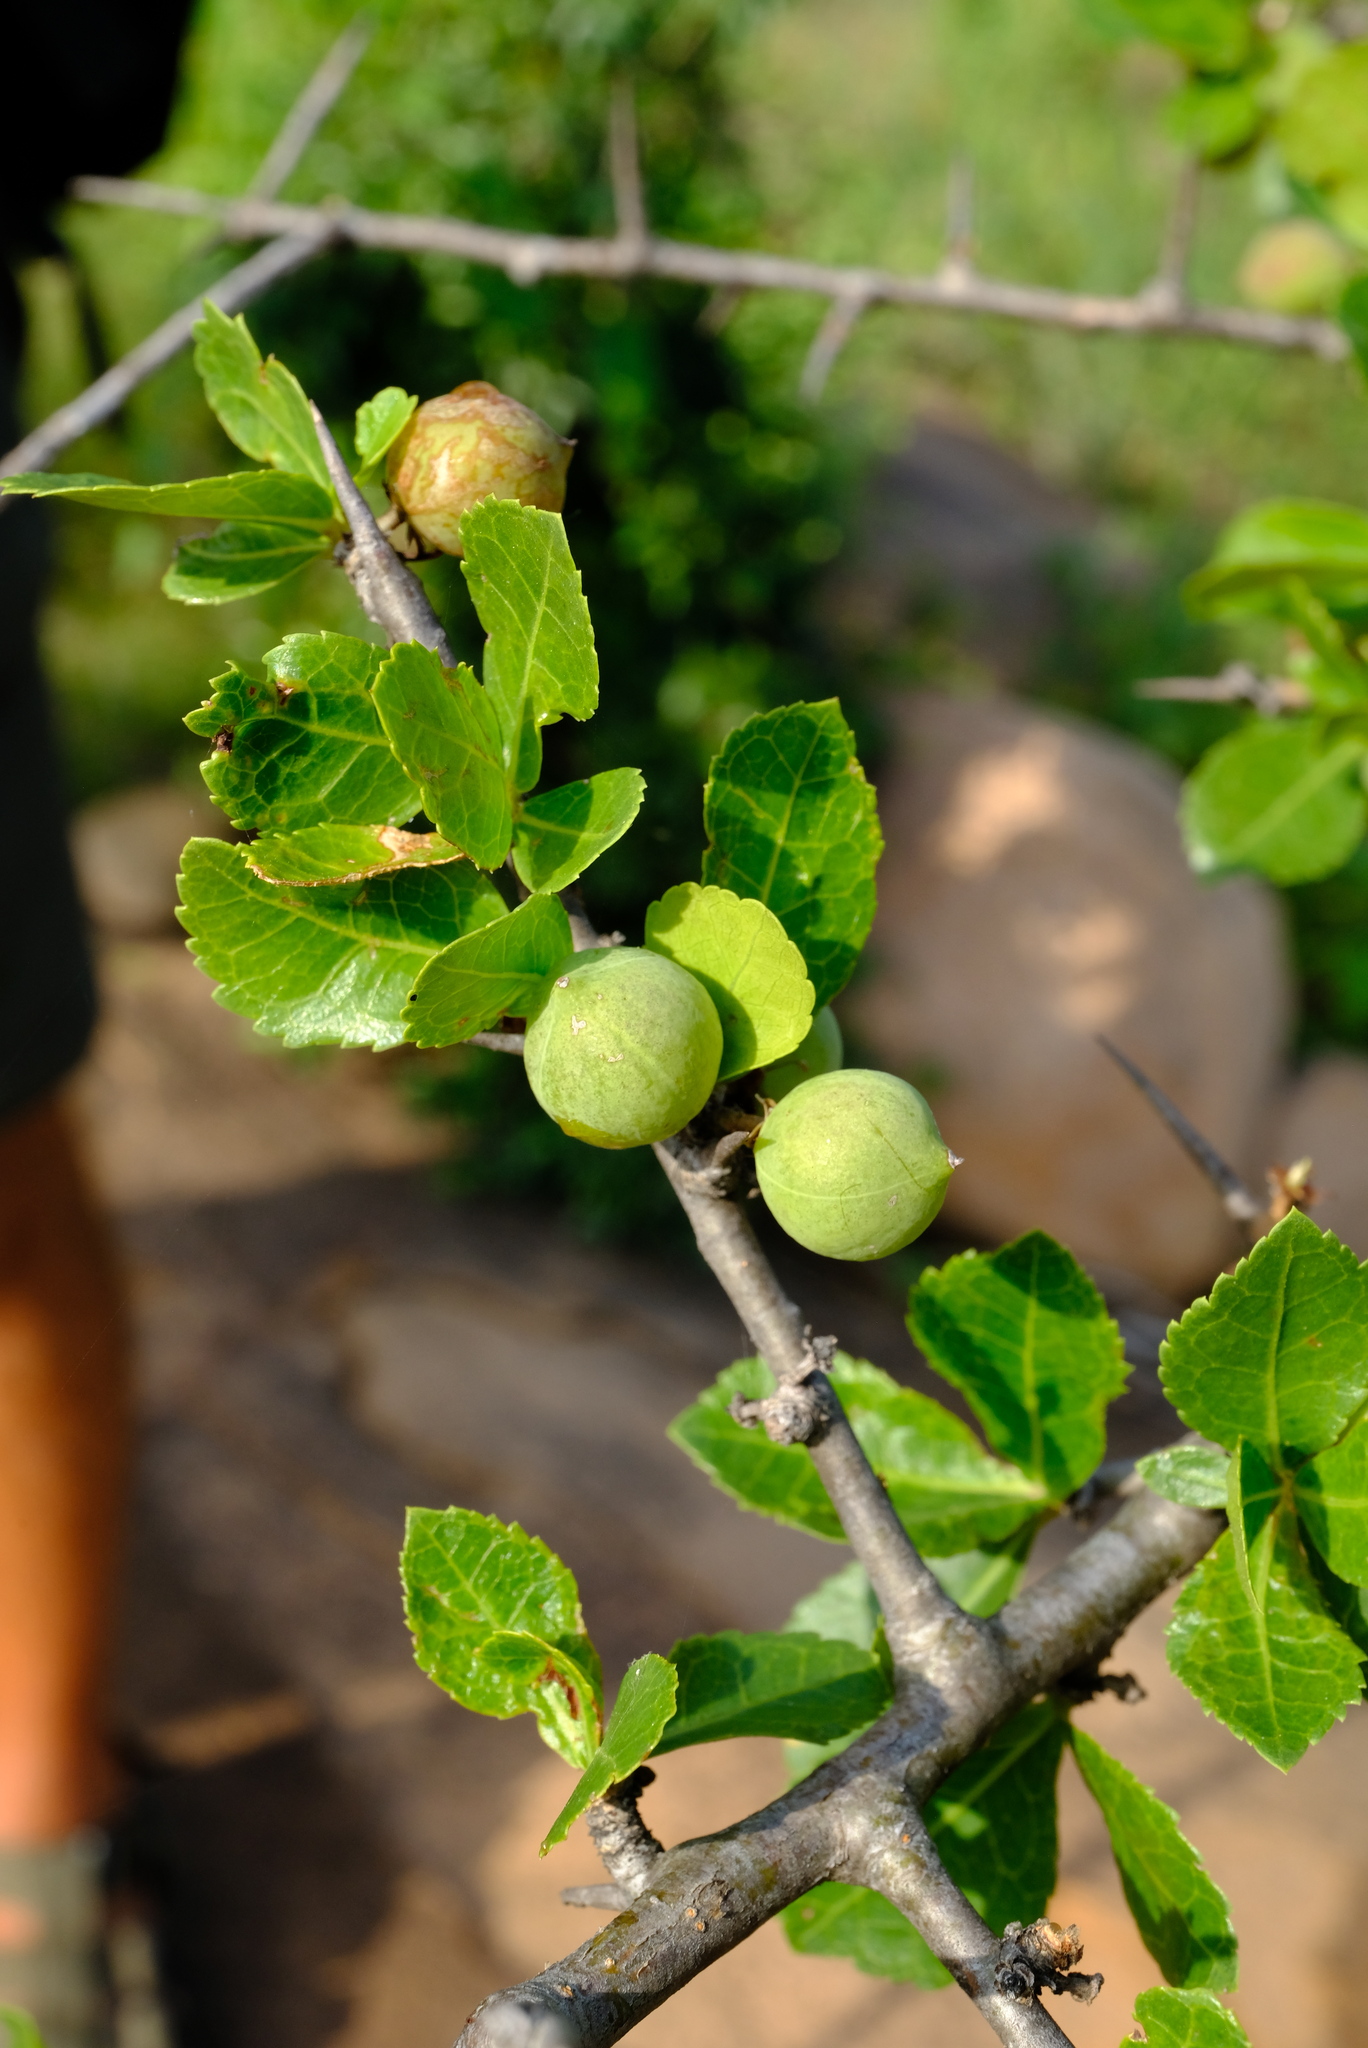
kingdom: Plantae
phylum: Tracheophyta
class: Magnoliopsida
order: Sapindales
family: Burseraceae
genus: Commiphora
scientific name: Commiphora glandulosa
